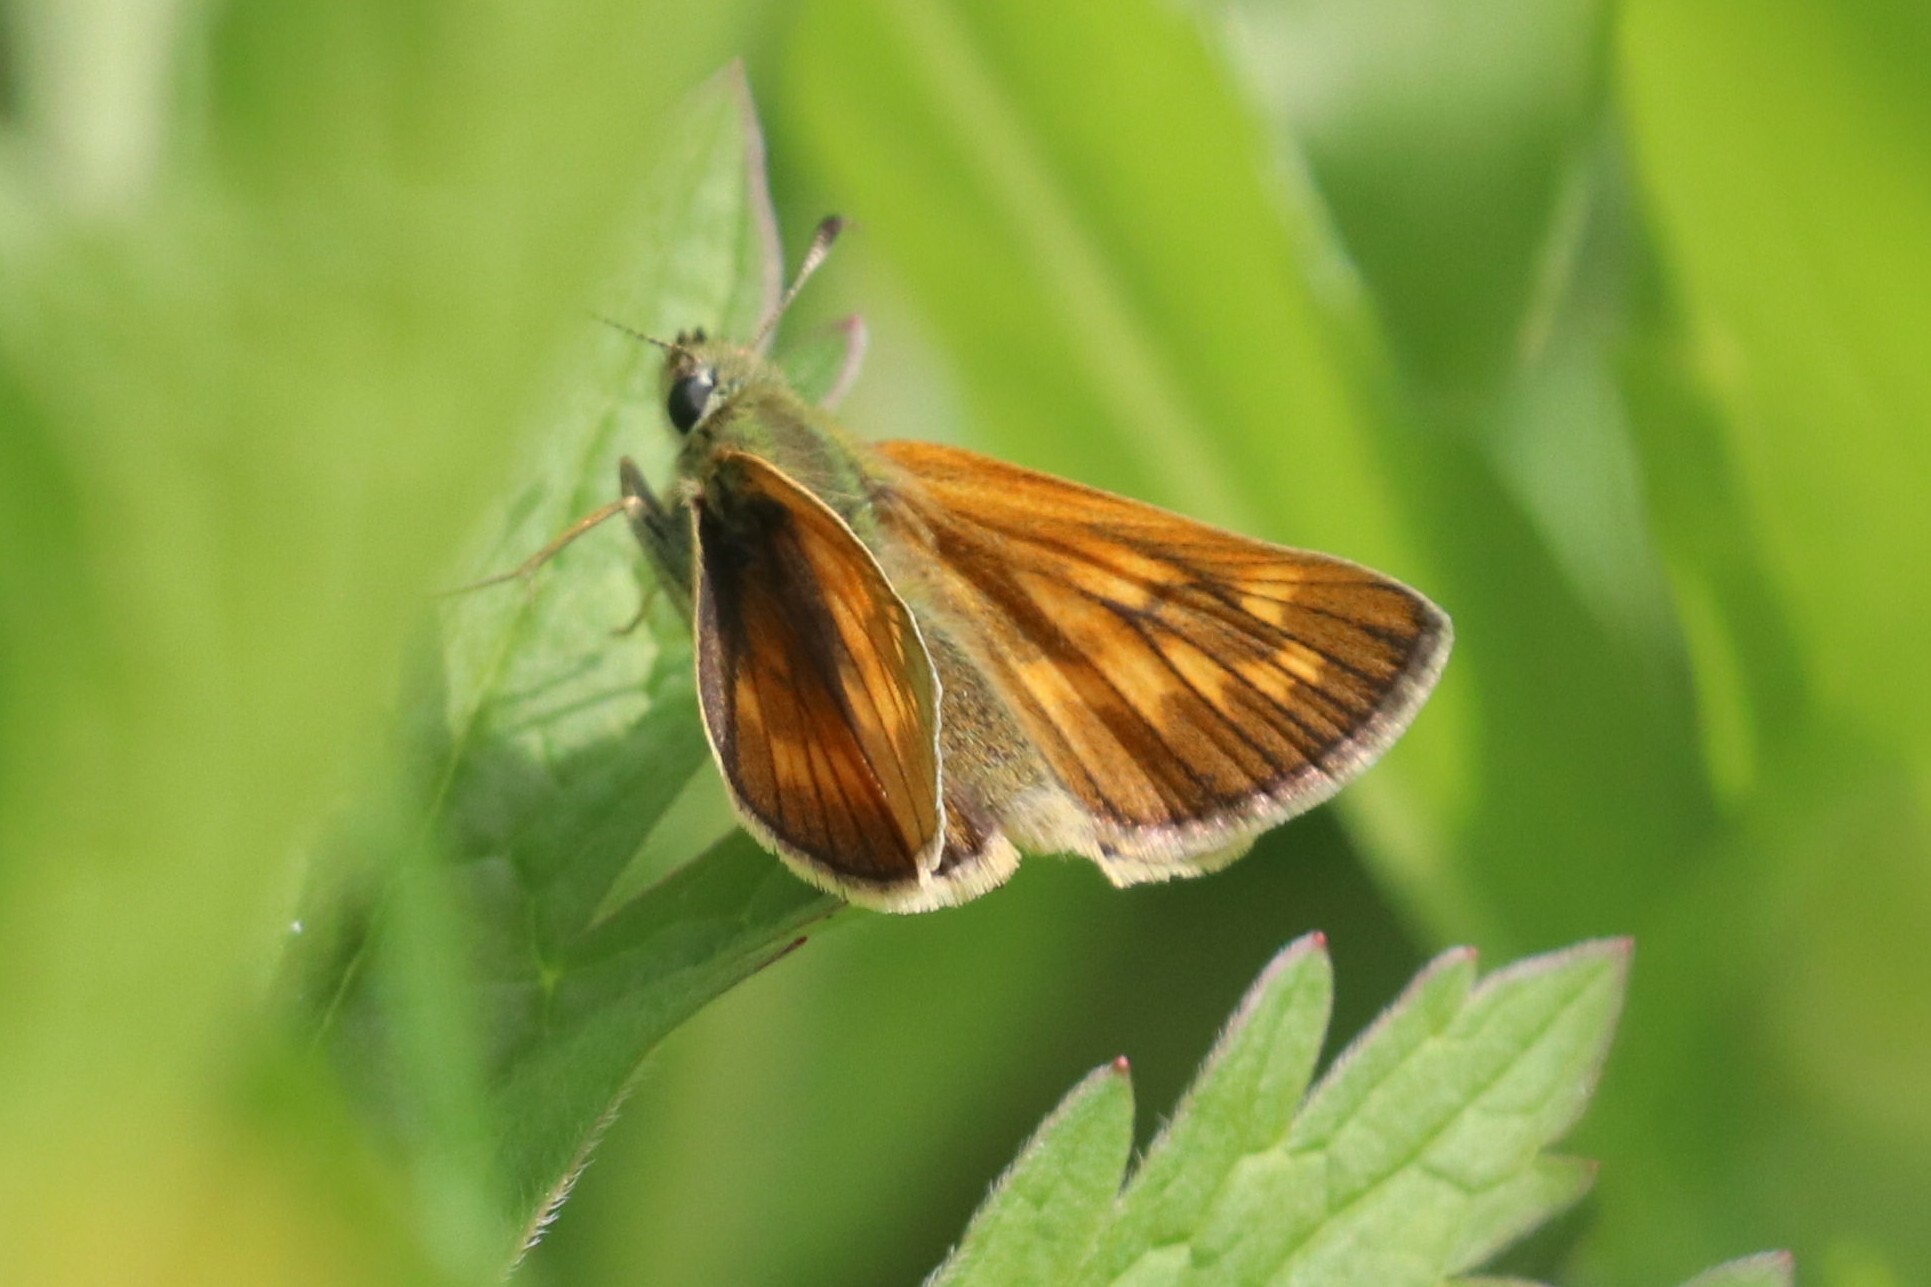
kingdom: Animalia
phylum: Arthropoda
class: Insecta
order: Lepidoptera
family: Hesperiidae
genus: Ochlodes
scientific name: Ochlodes venata
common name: Large skipper
